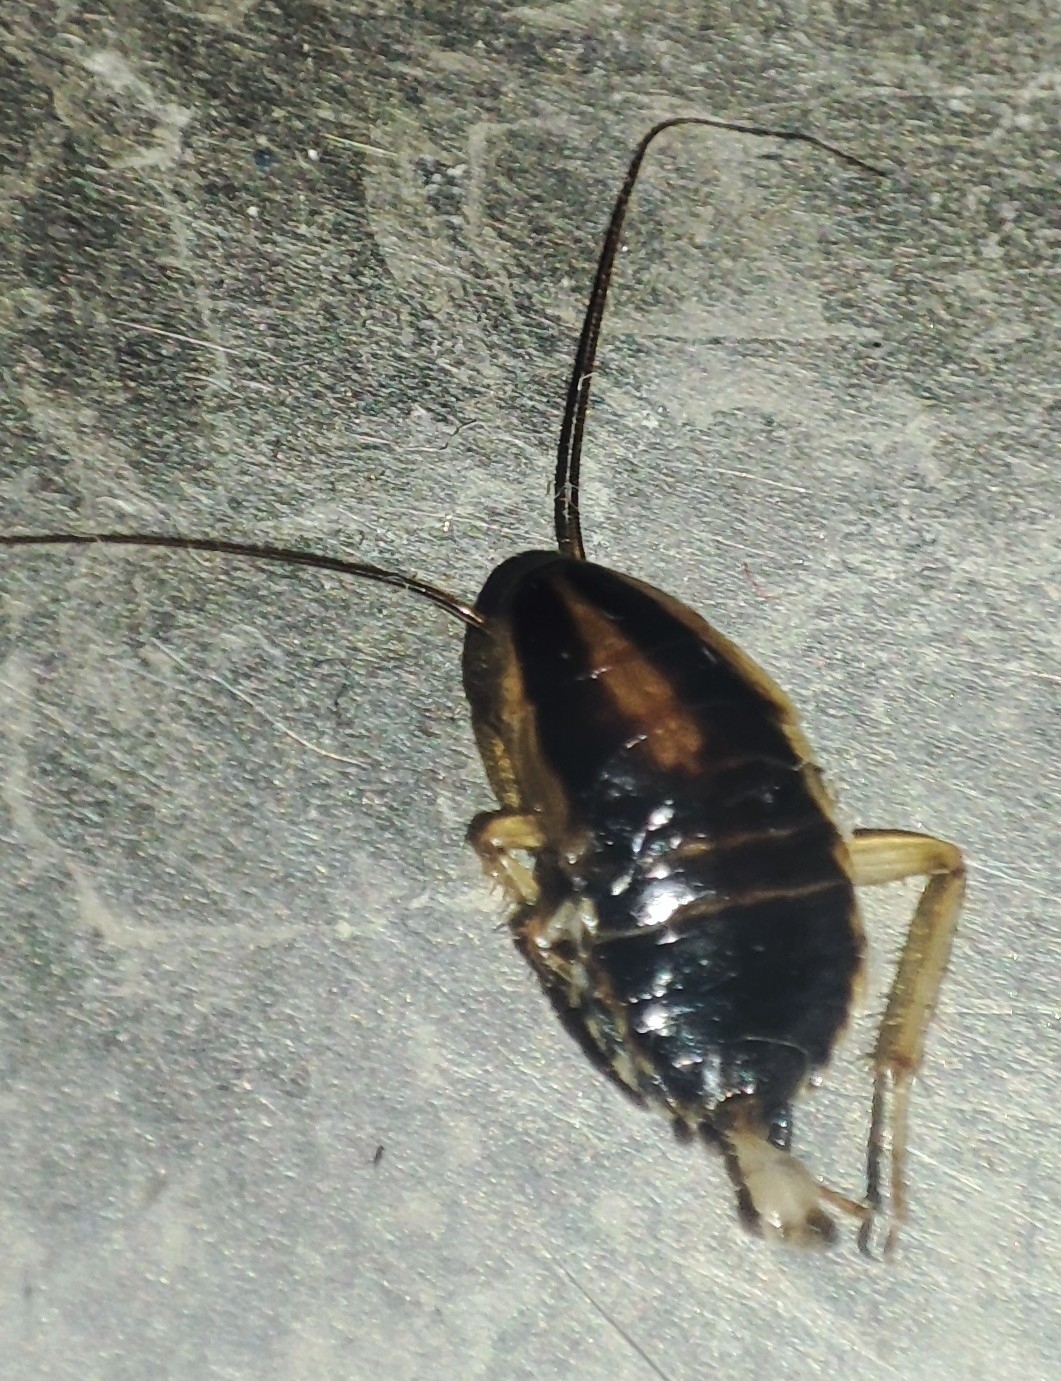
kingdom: Animalia
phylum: Arthropoda
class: Insecta
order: Blattodea
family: Ectobiidae
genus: Blattella
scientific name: Blattella germanica
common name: German cockroach
